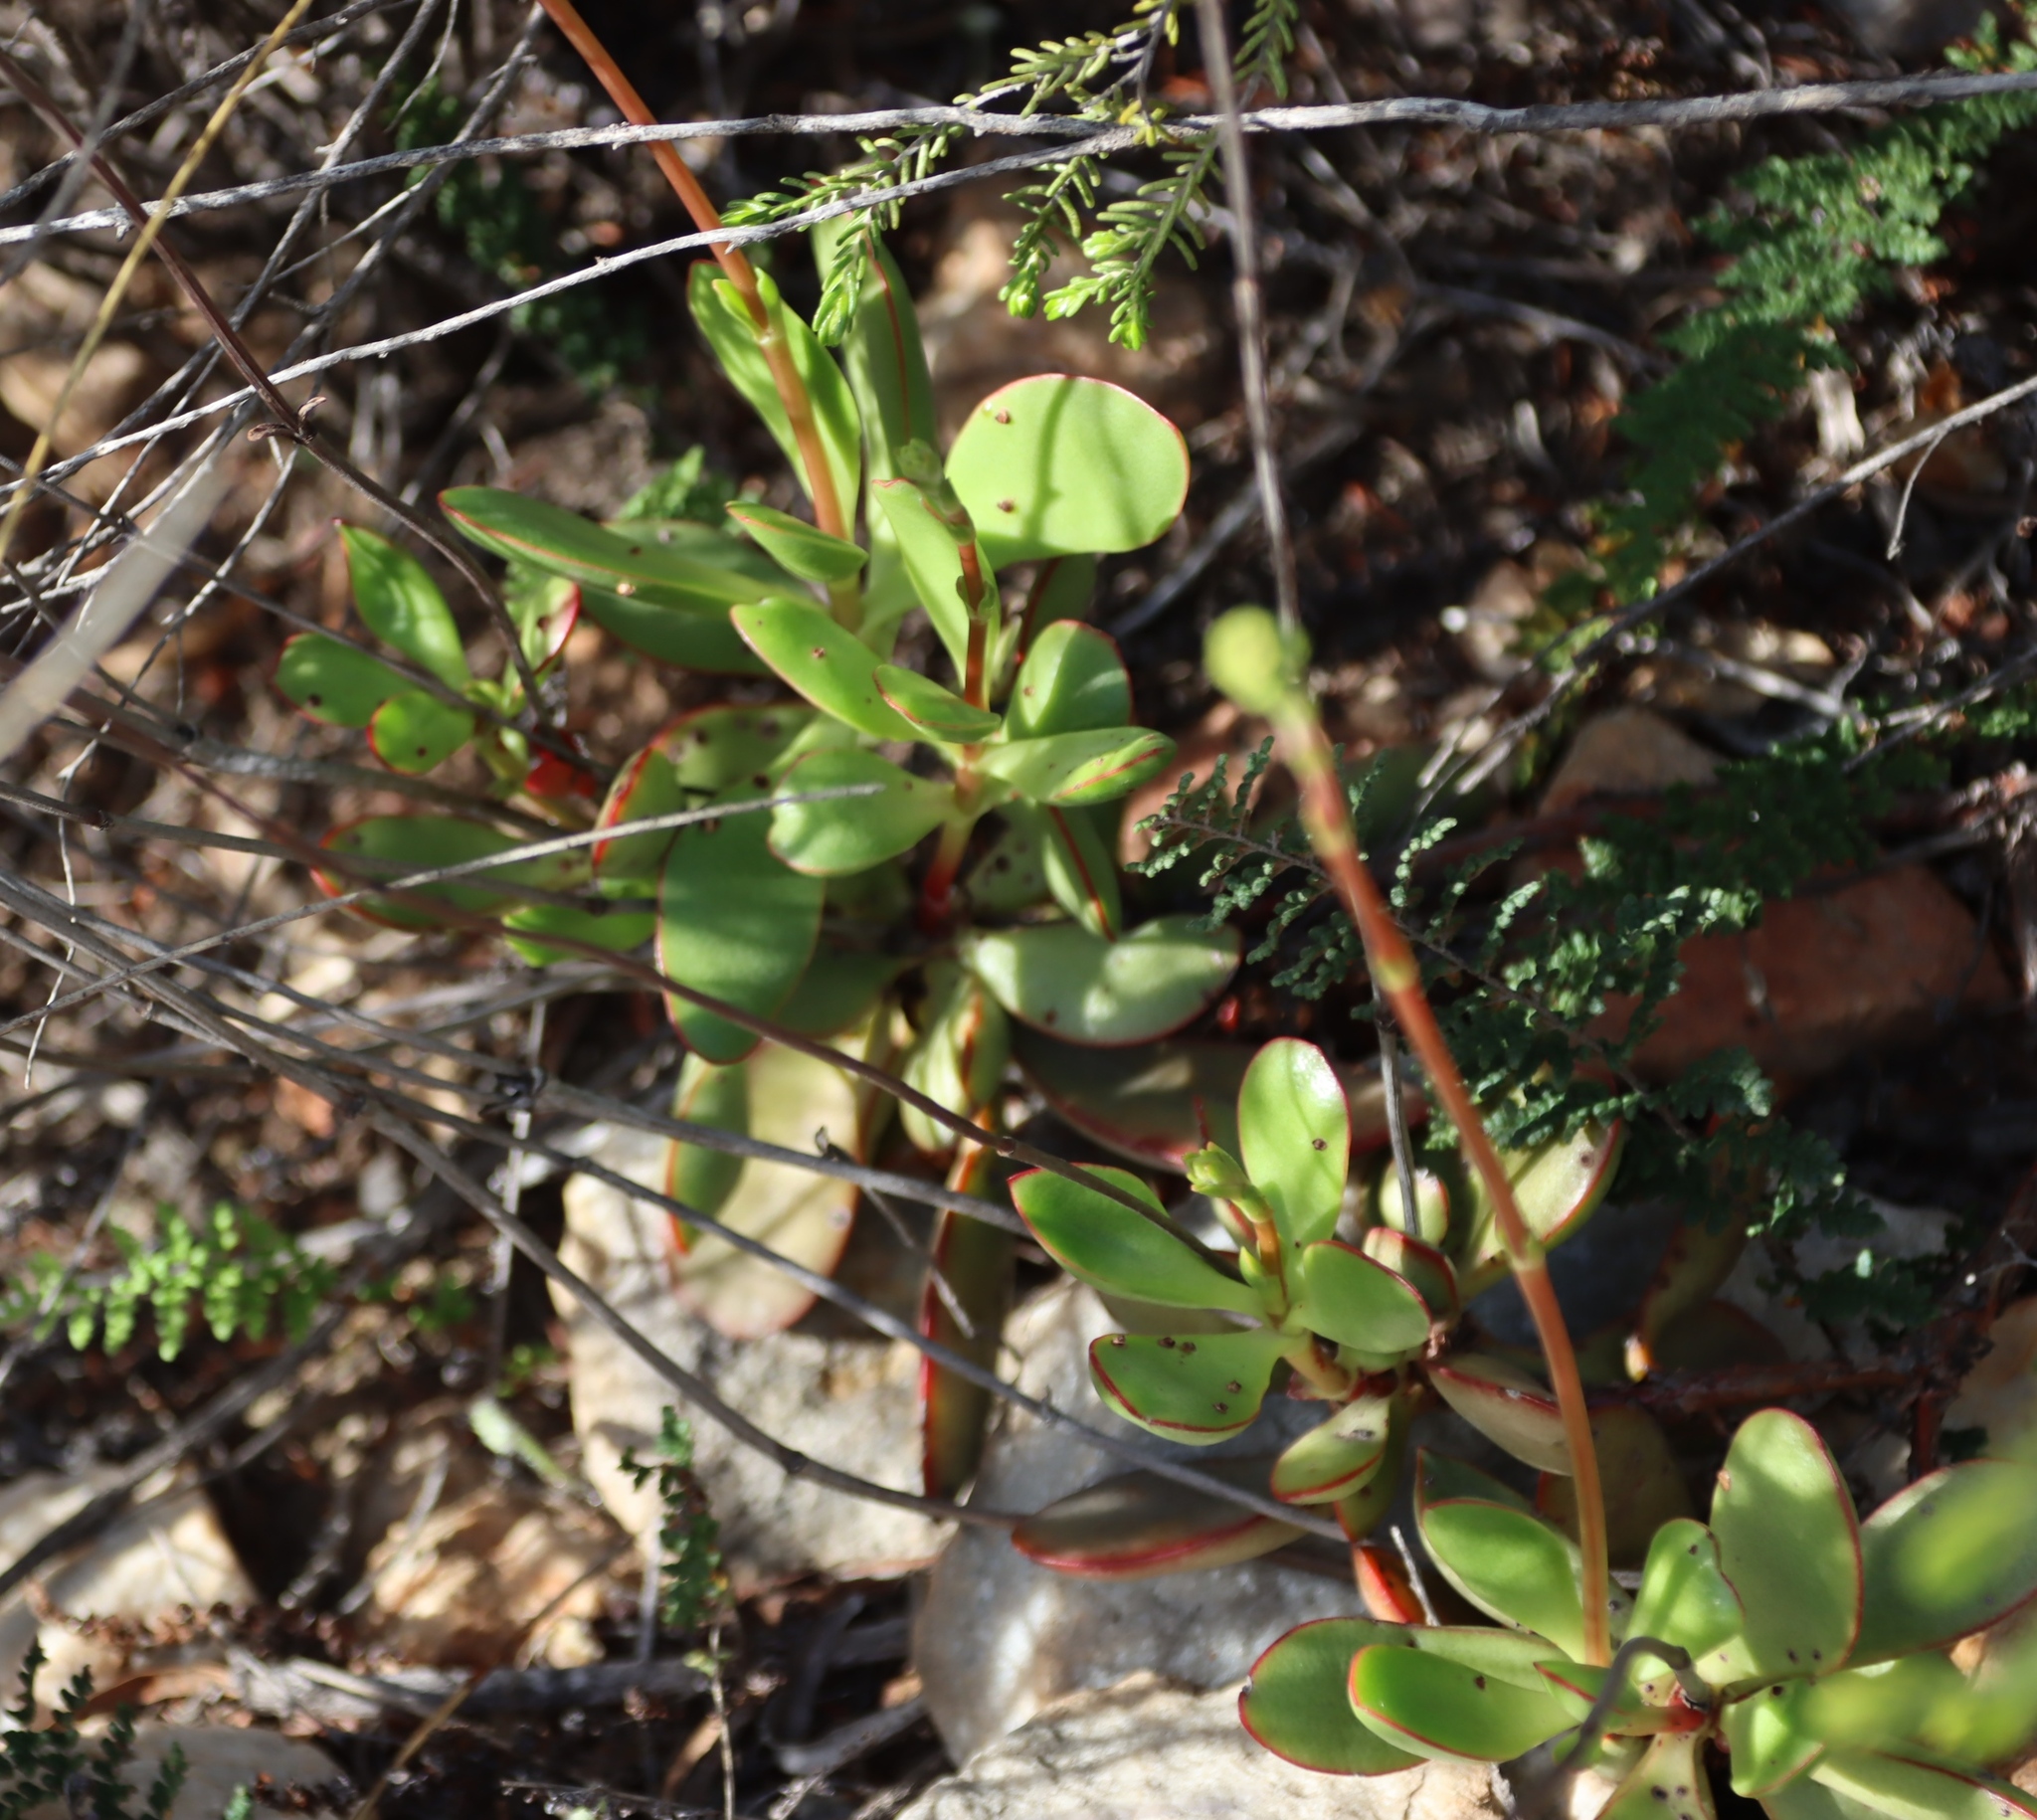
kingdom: Plantae
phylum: Tracheophyta
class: Magnoliopsida
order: Saxifragales
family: Crassulaceae
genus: Crassula
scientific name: Crassula cultrata
